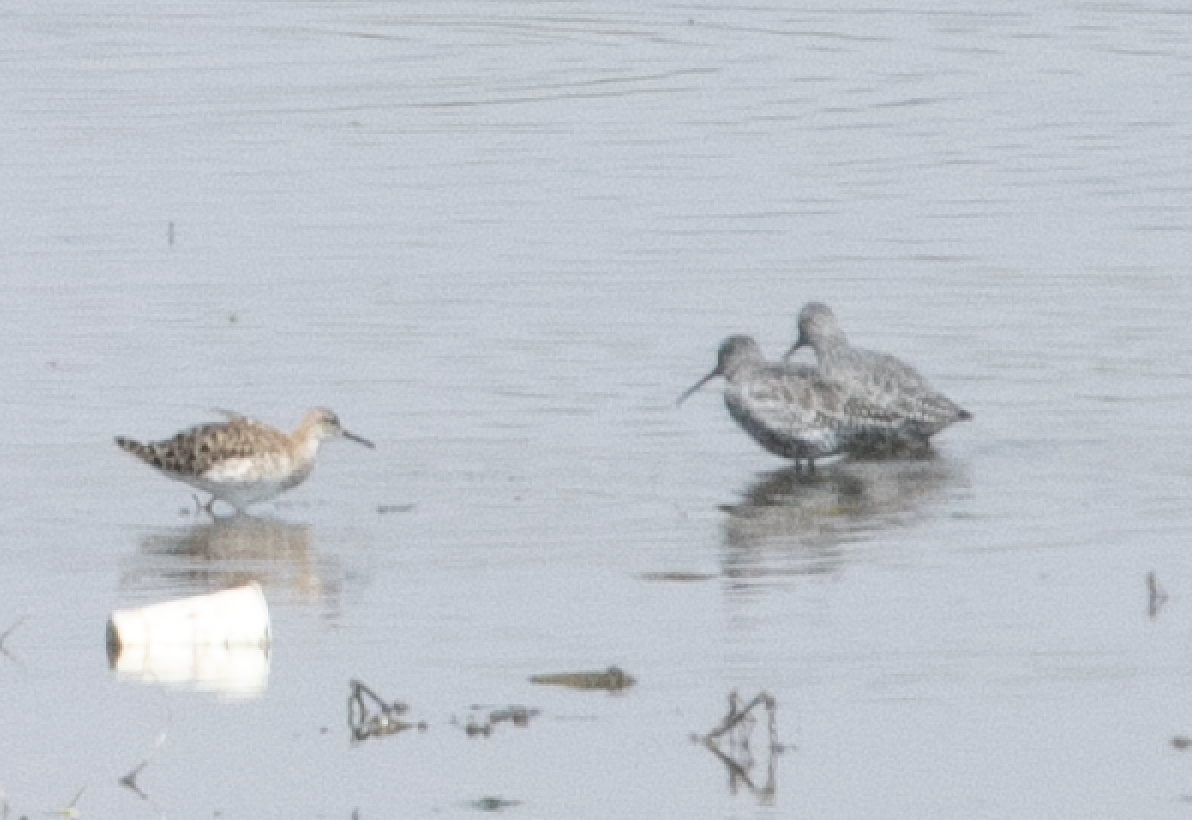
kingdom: Animalia
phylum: Chordata
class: Aves
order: Charadriiformes
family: Scolopacidae
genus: Tringa
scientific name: Tringa erythropus
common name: Spotted redshank
